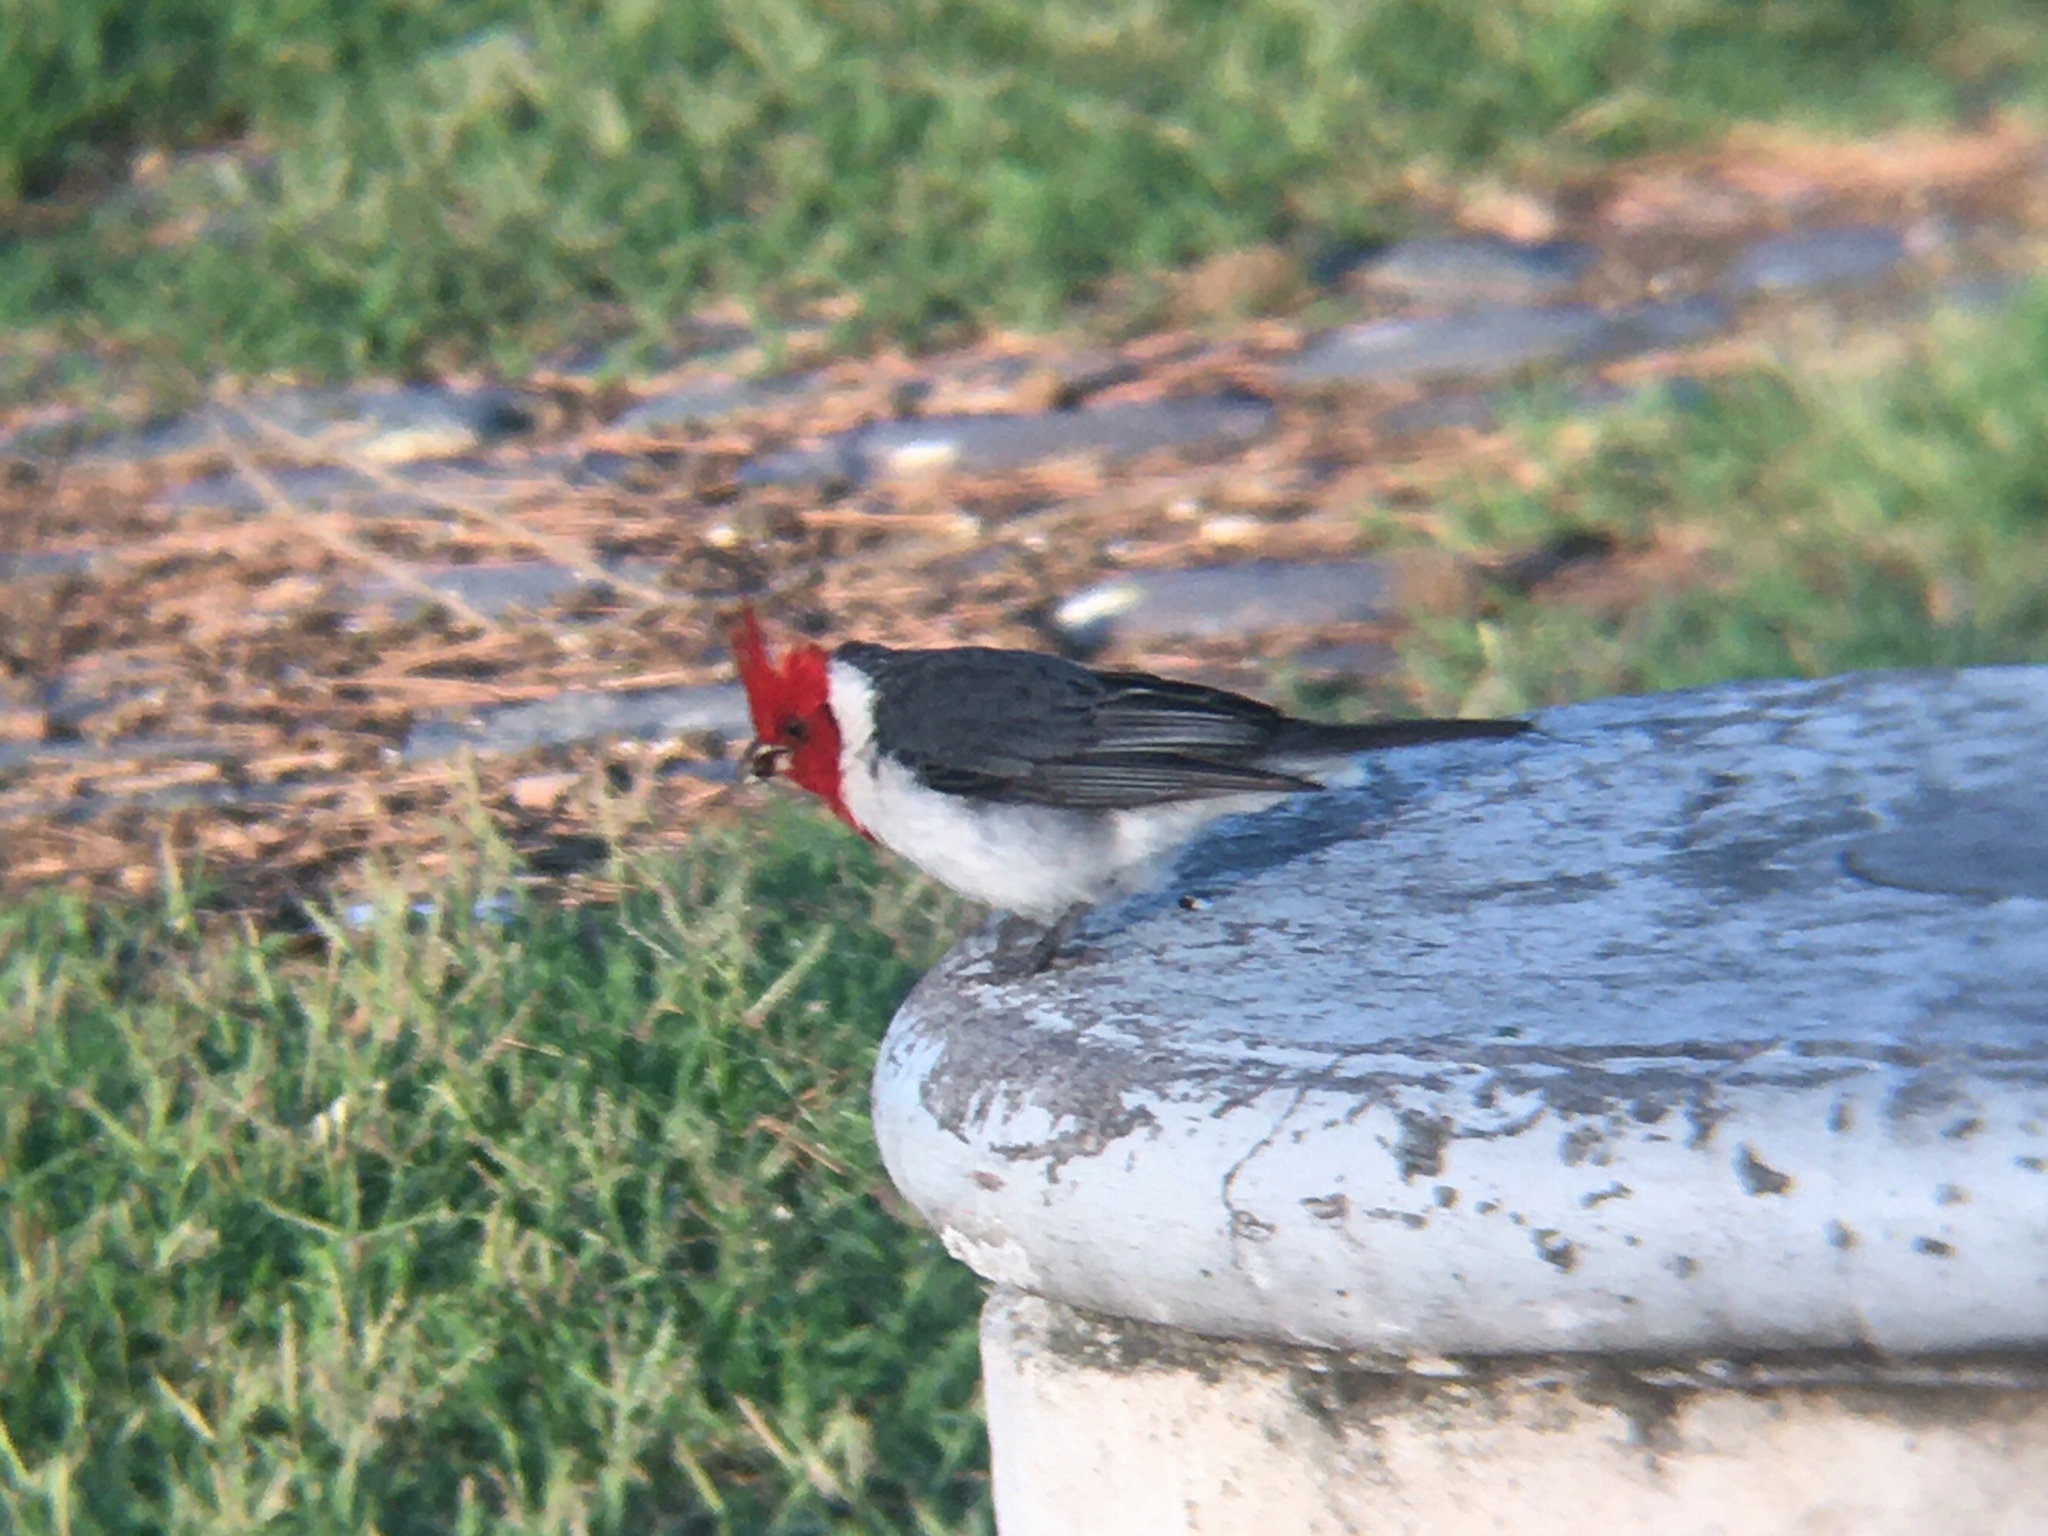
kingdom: Animalia
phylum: Chordata
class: Aves
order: Passeriformes
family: Thraupidae
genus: Paroaria
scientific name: Paroaria coronata
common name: Red-crested cardinal
